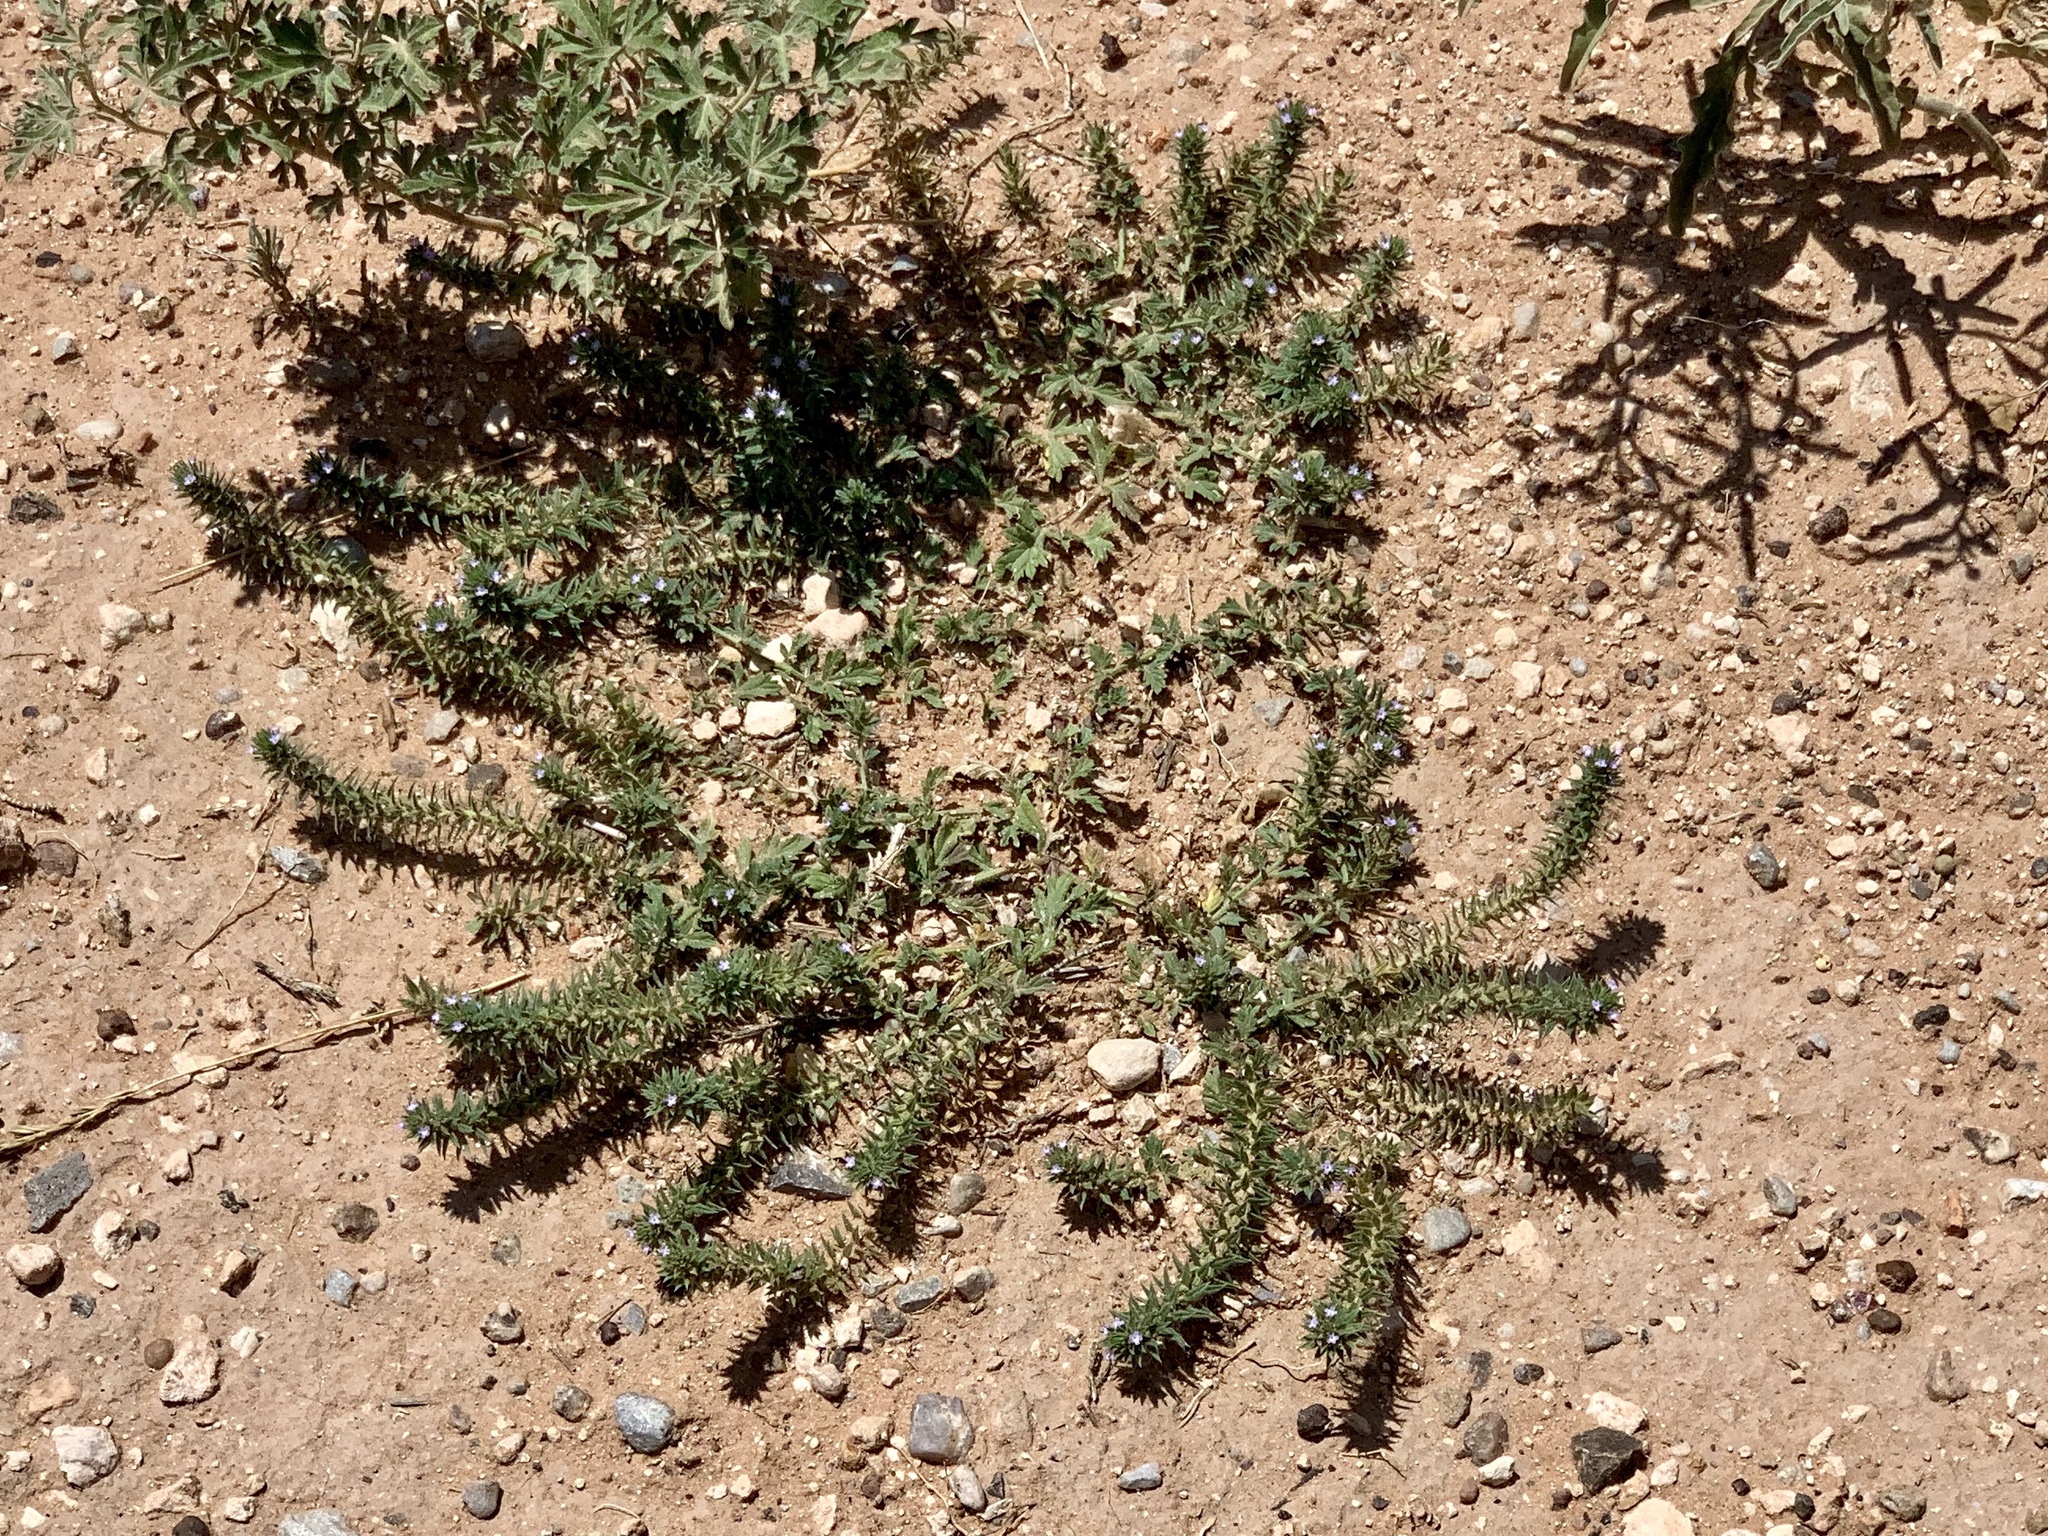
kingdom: Plantae
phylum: Tracheophyta
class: Magnoliopsida
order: Lamiales
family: Verbenaceae
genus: Verbena
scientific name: Verbena bracteata
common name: Bracted vervain
